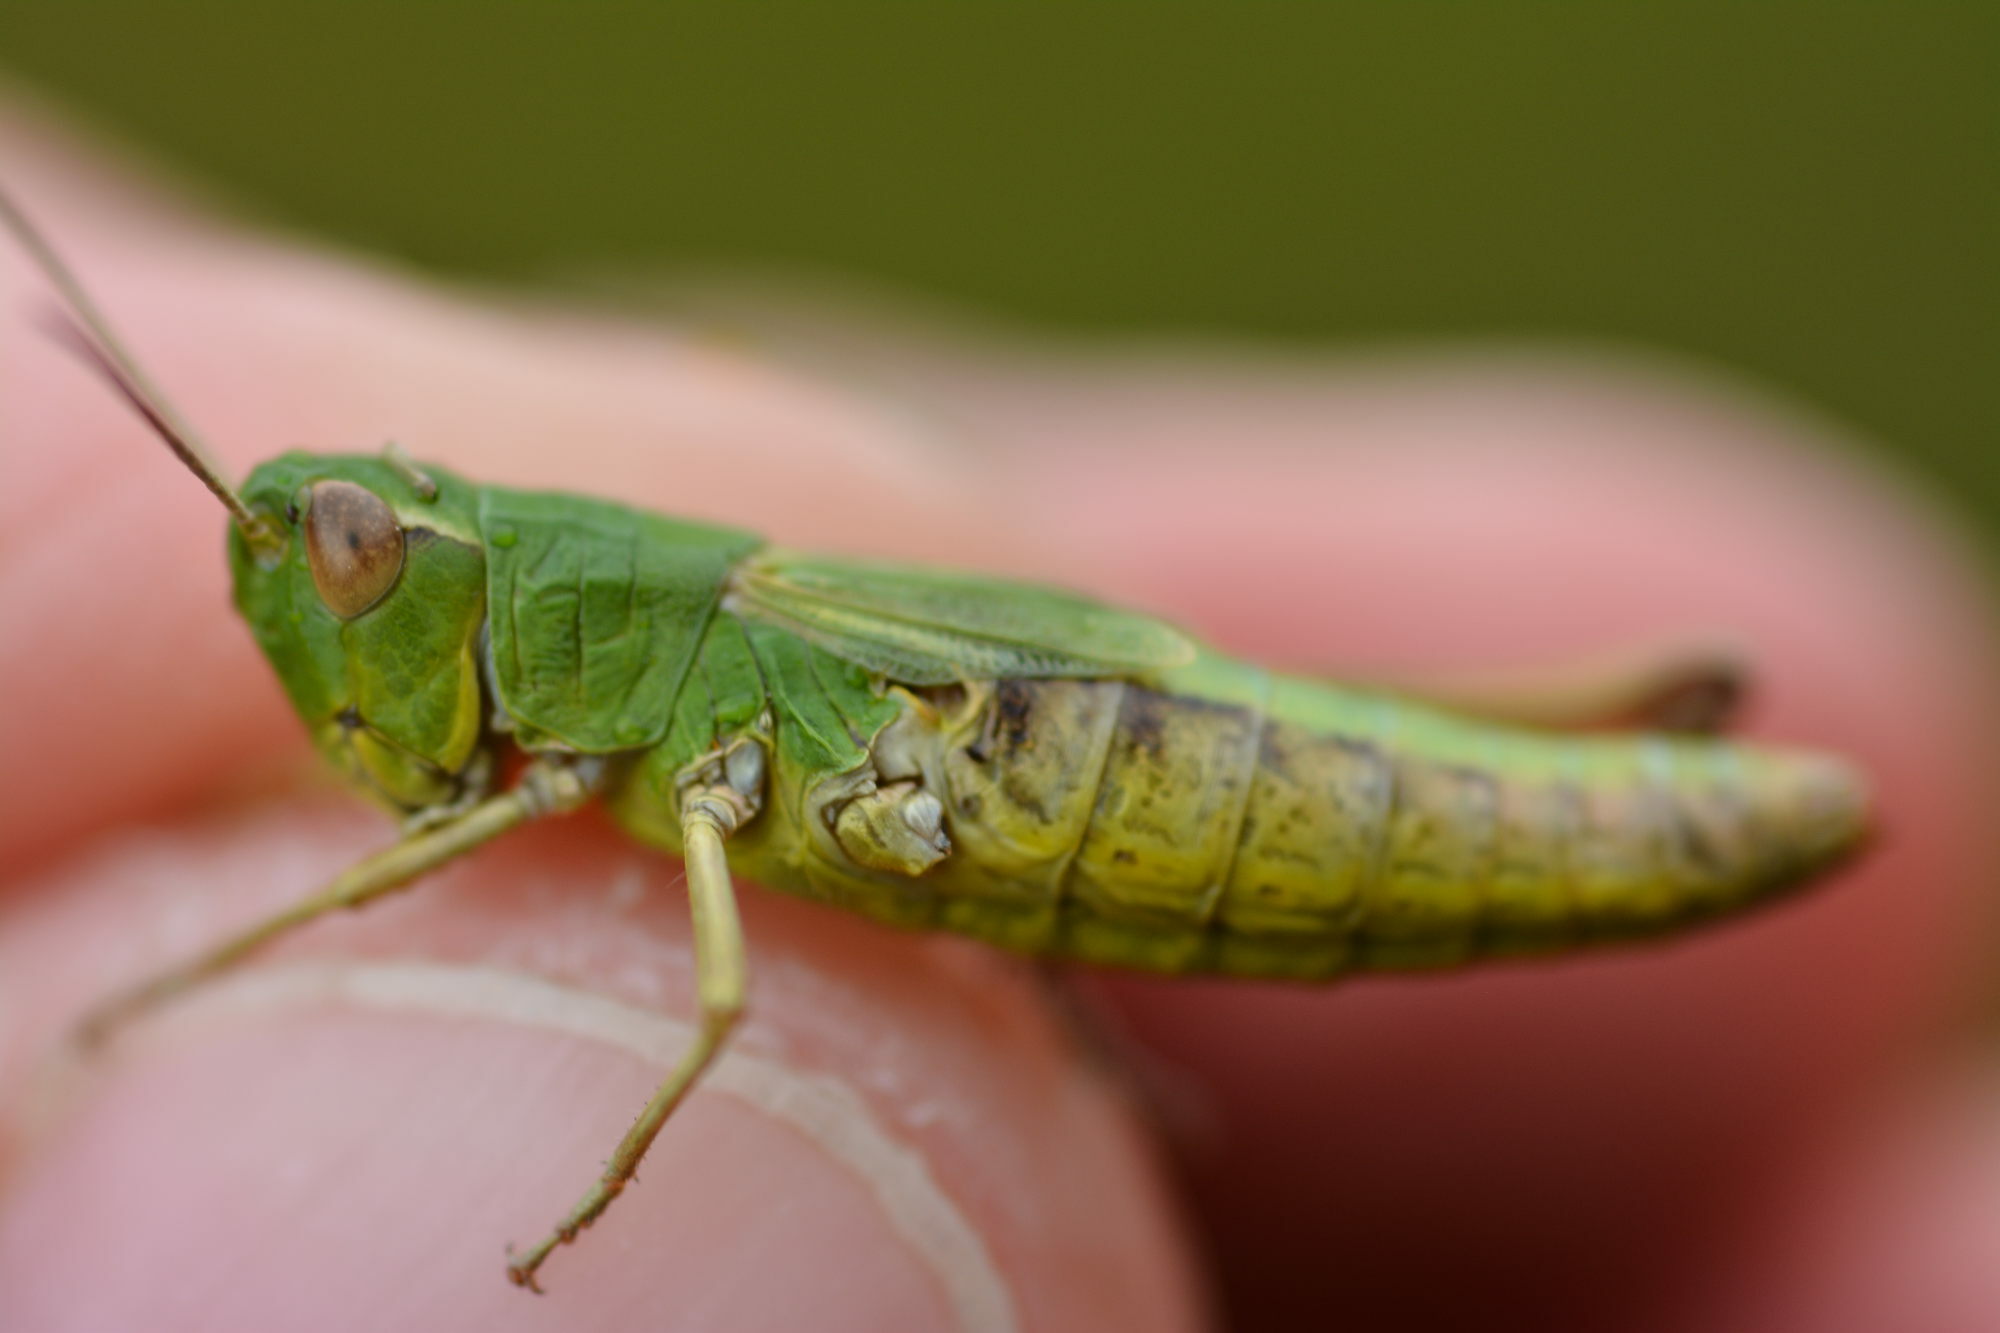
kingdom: Animalia
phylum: Arthropoda
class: Insecta
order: Orthoptera
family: Acrididae
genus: Pseudochorthippus
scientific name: Pseudochorthippus parallelus
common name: Meadow grasshopper
